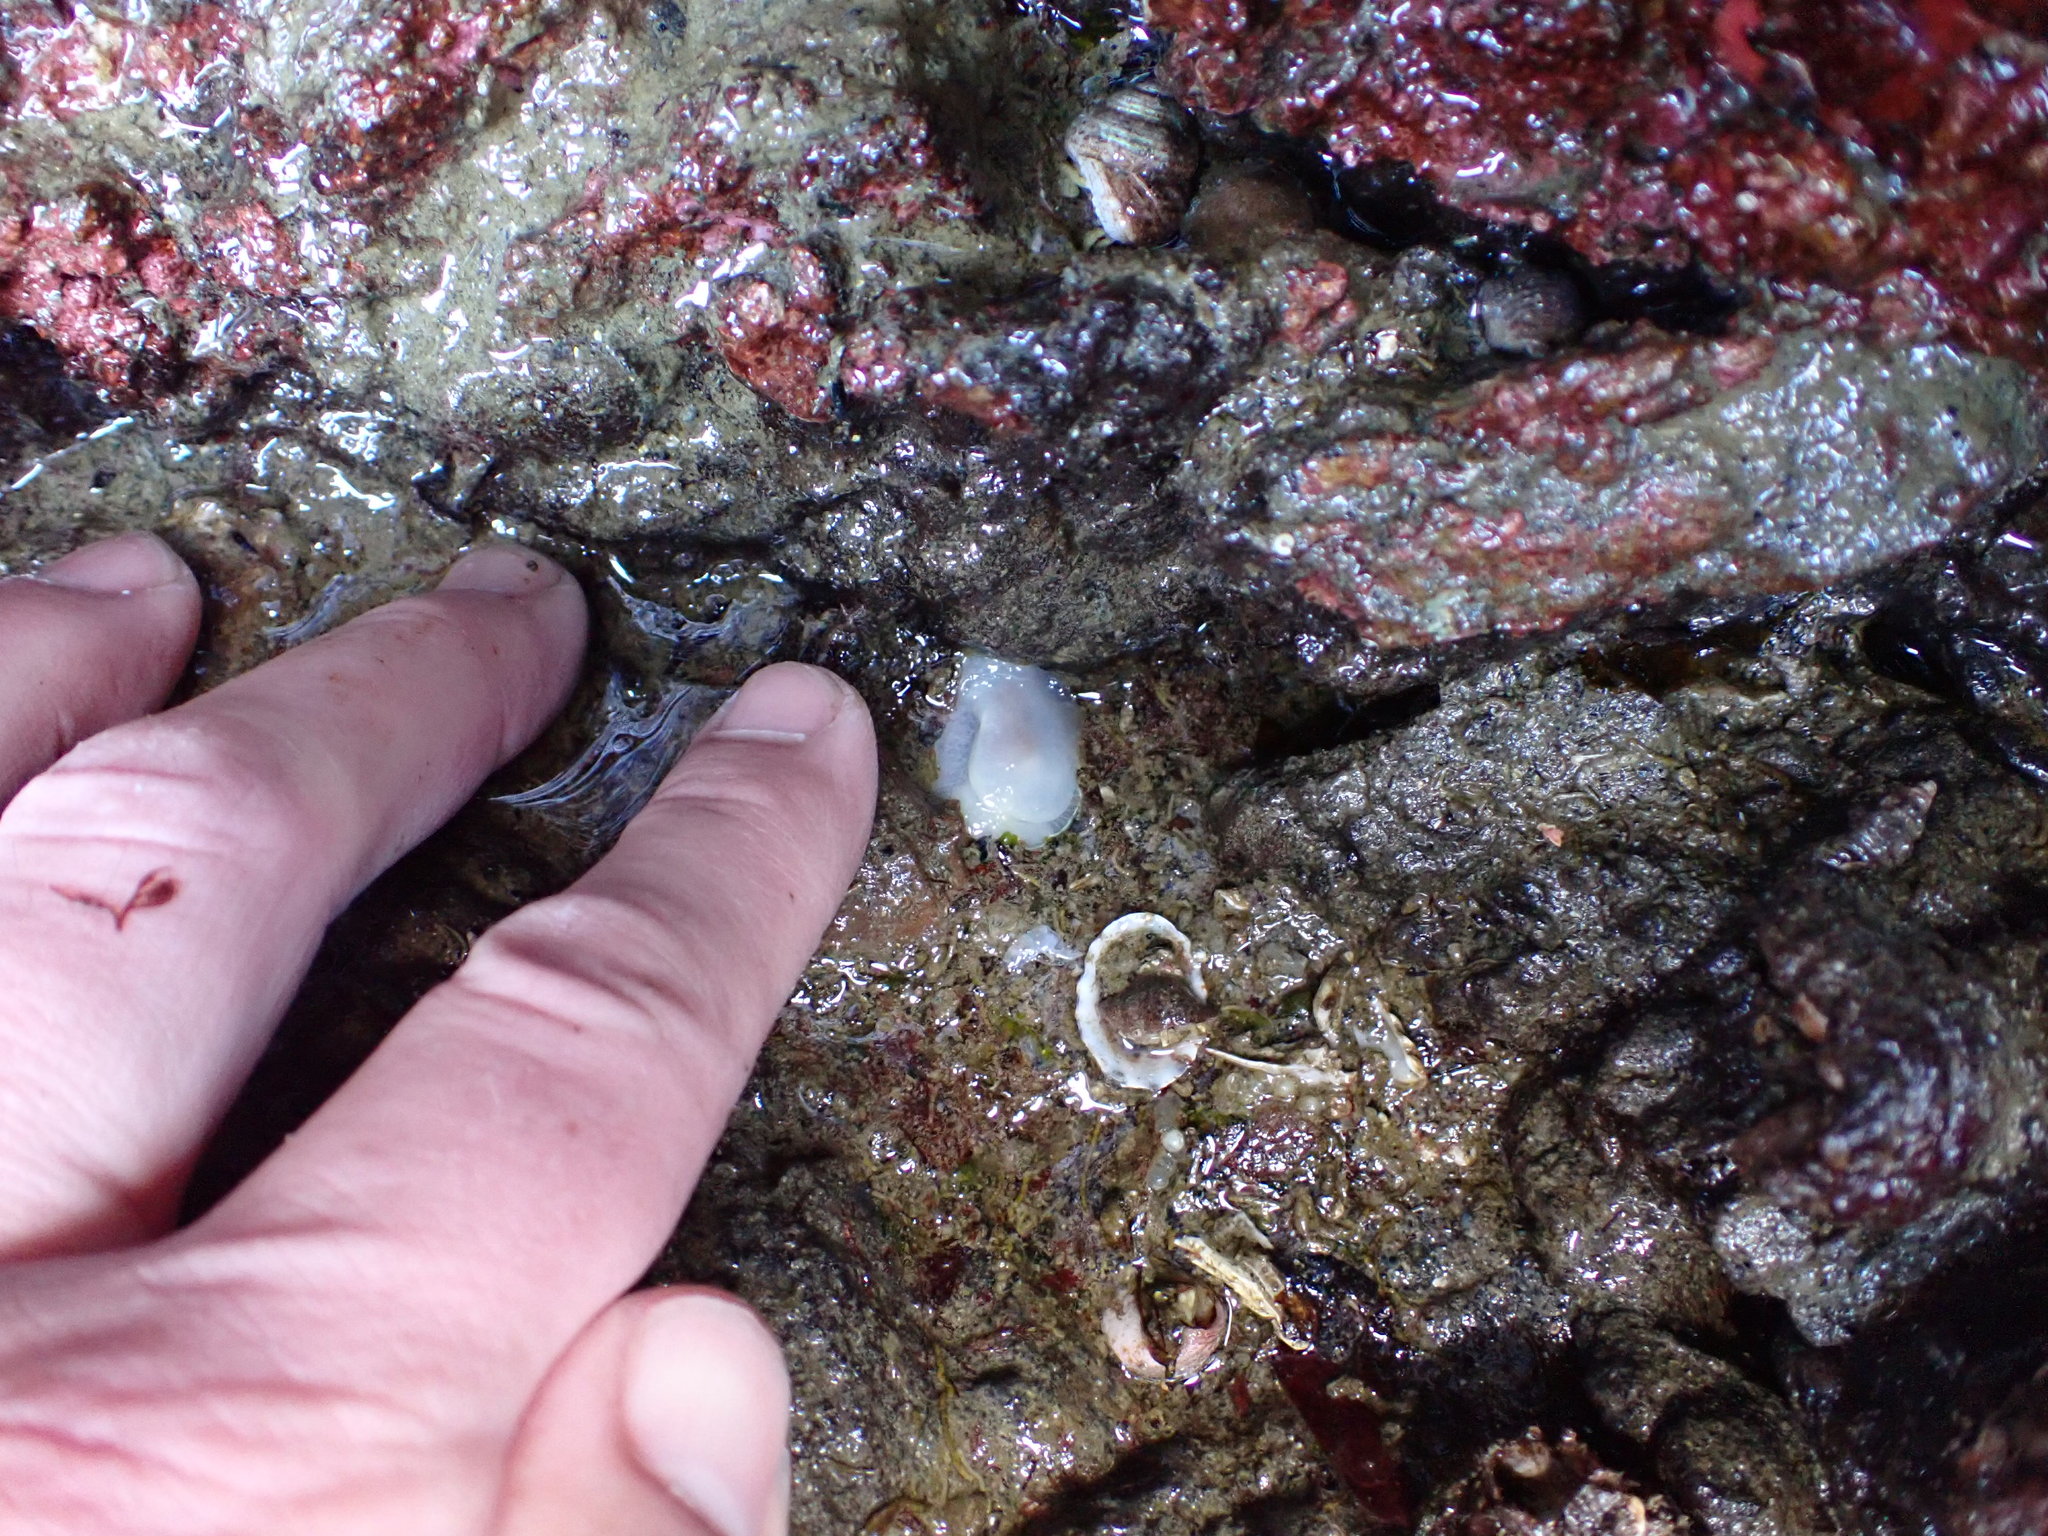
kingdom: Animalia
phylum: Mollusca
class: Gastropoda
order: Nudibranchia
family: Onchidorididae
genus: Acanthodoris
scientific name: Acanthodoris nanaimoensis
